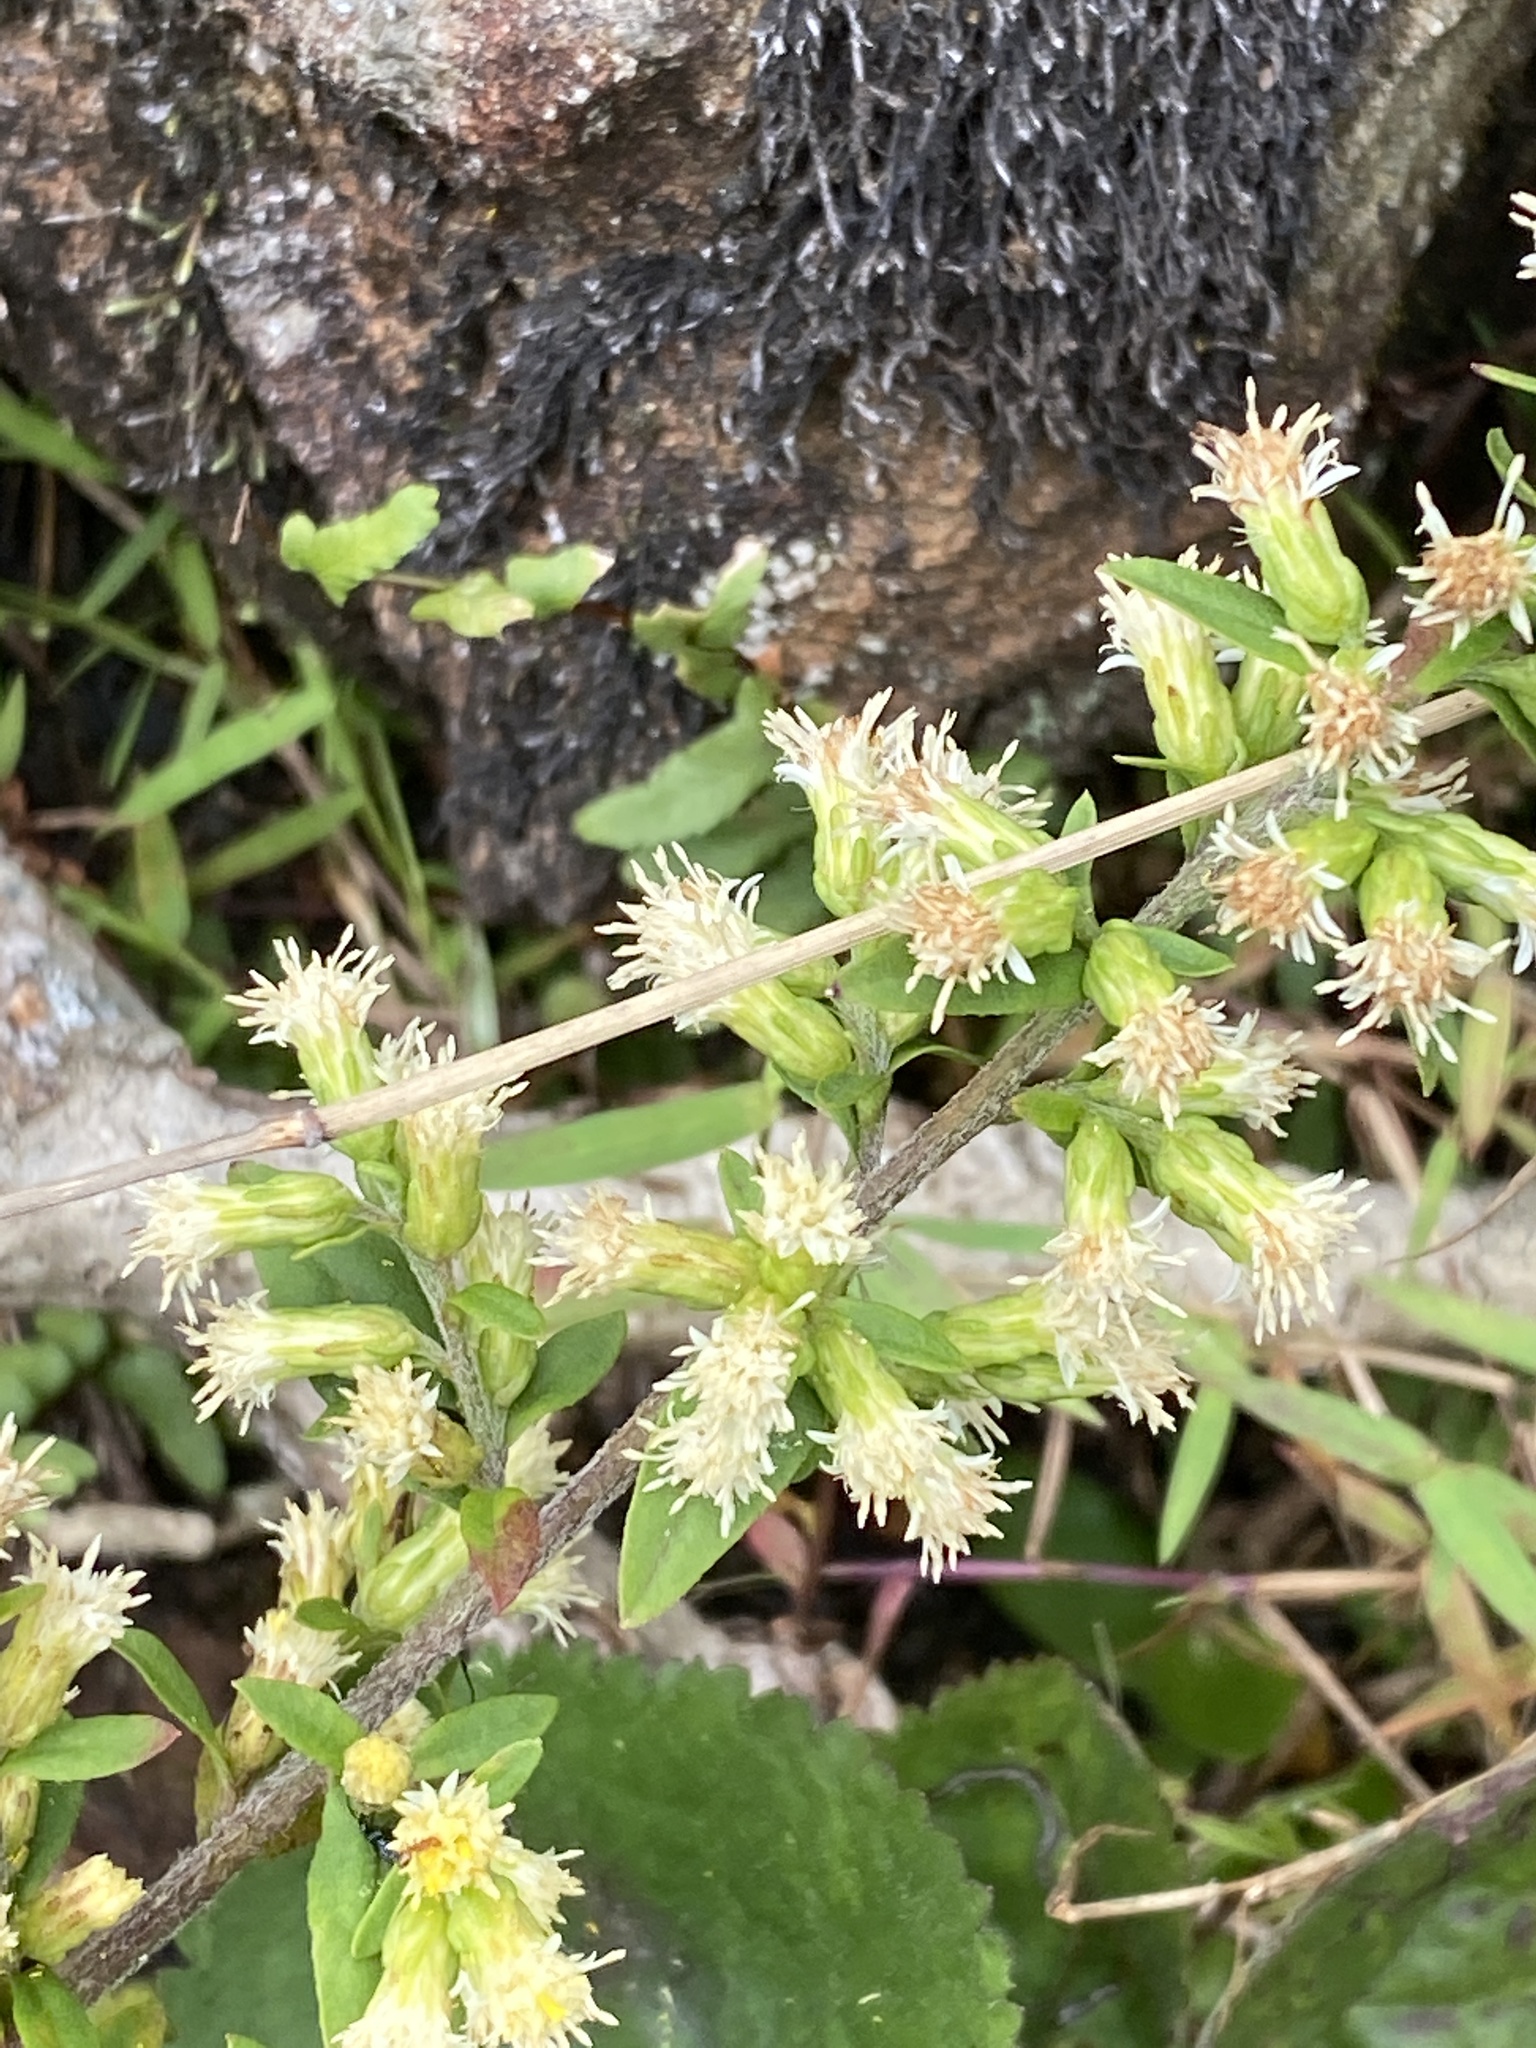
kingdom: Plantae
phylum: Tracheophyta
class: Magnoliopsida
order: Asterales
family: Asteraceae
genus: Solidago
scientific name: Solidago bicolor
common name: Silverrod
